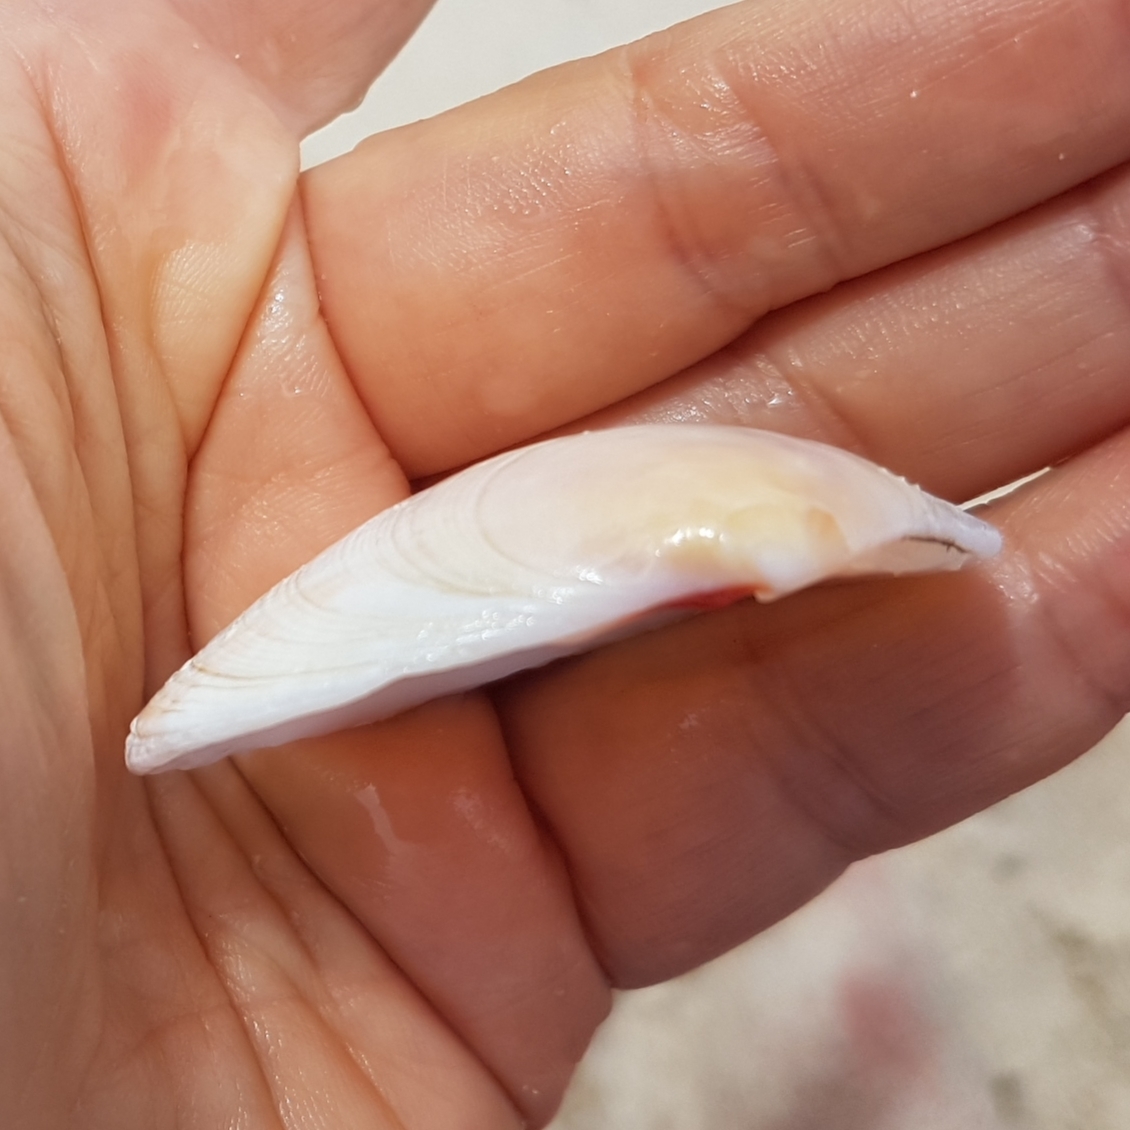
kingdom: Animalia
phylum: Mollusca
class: Bivalvia
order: Cardiida
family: Tellinidae
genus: Arcopagia
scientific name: Arcopagia crassa
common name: Blunt tellin
